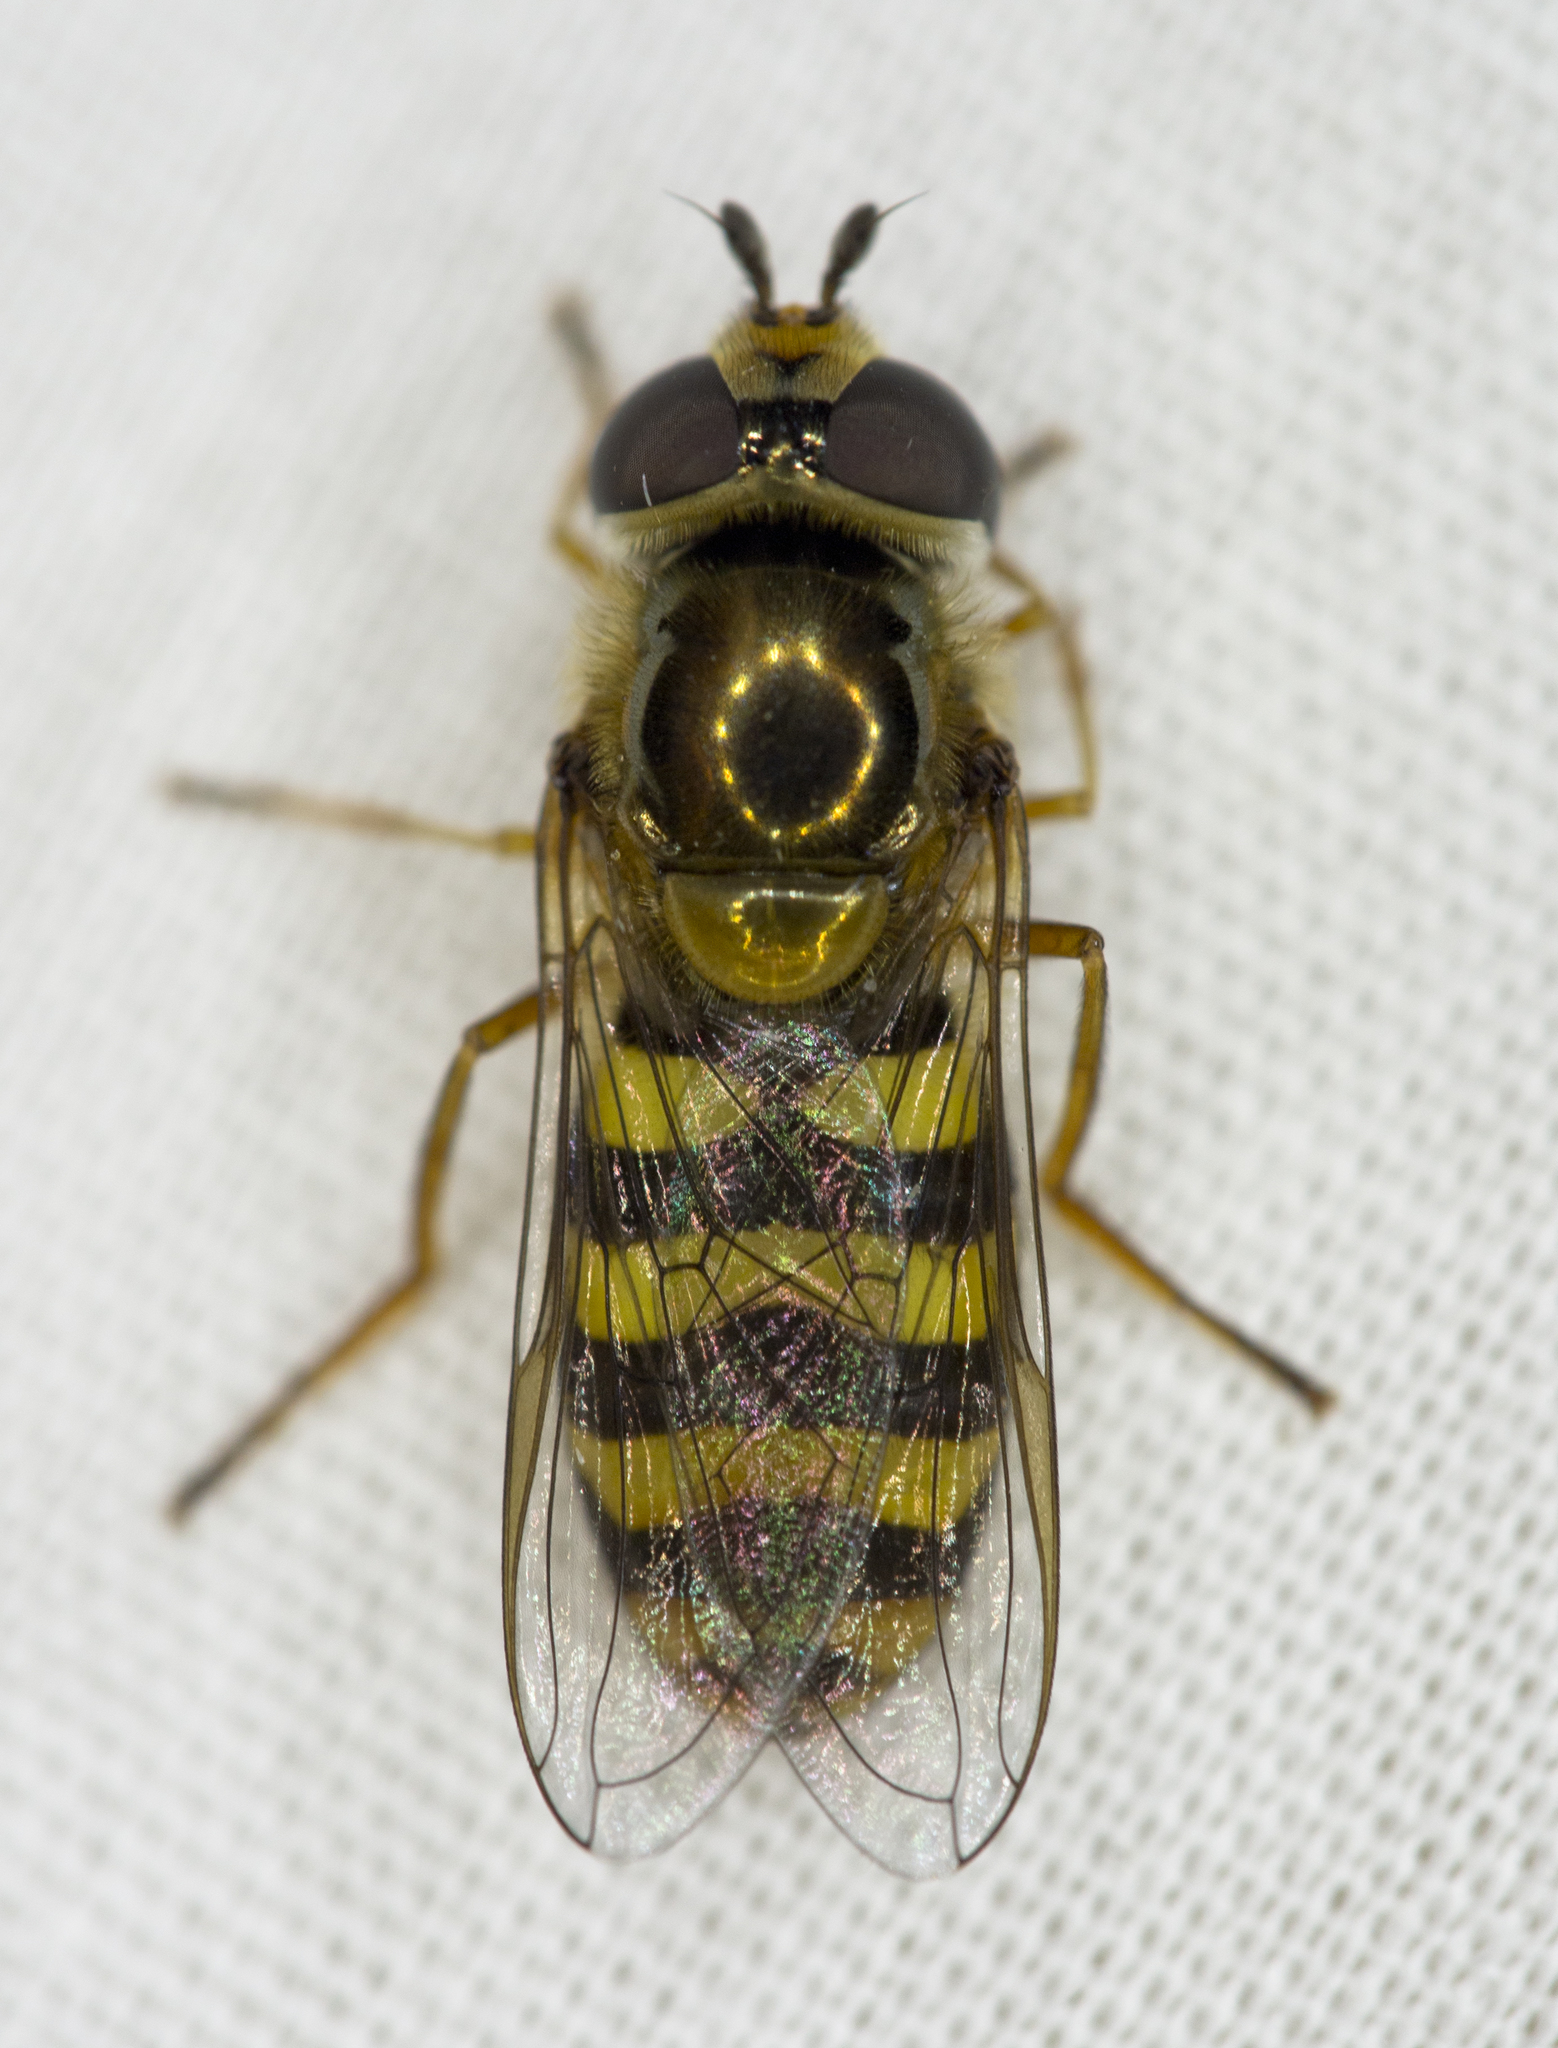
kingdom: Animalia
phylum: Arthropoda
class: Insecta
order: Diptera
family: Syrphidae
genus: Eupeodes
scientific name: Eupeodes fumipennis
